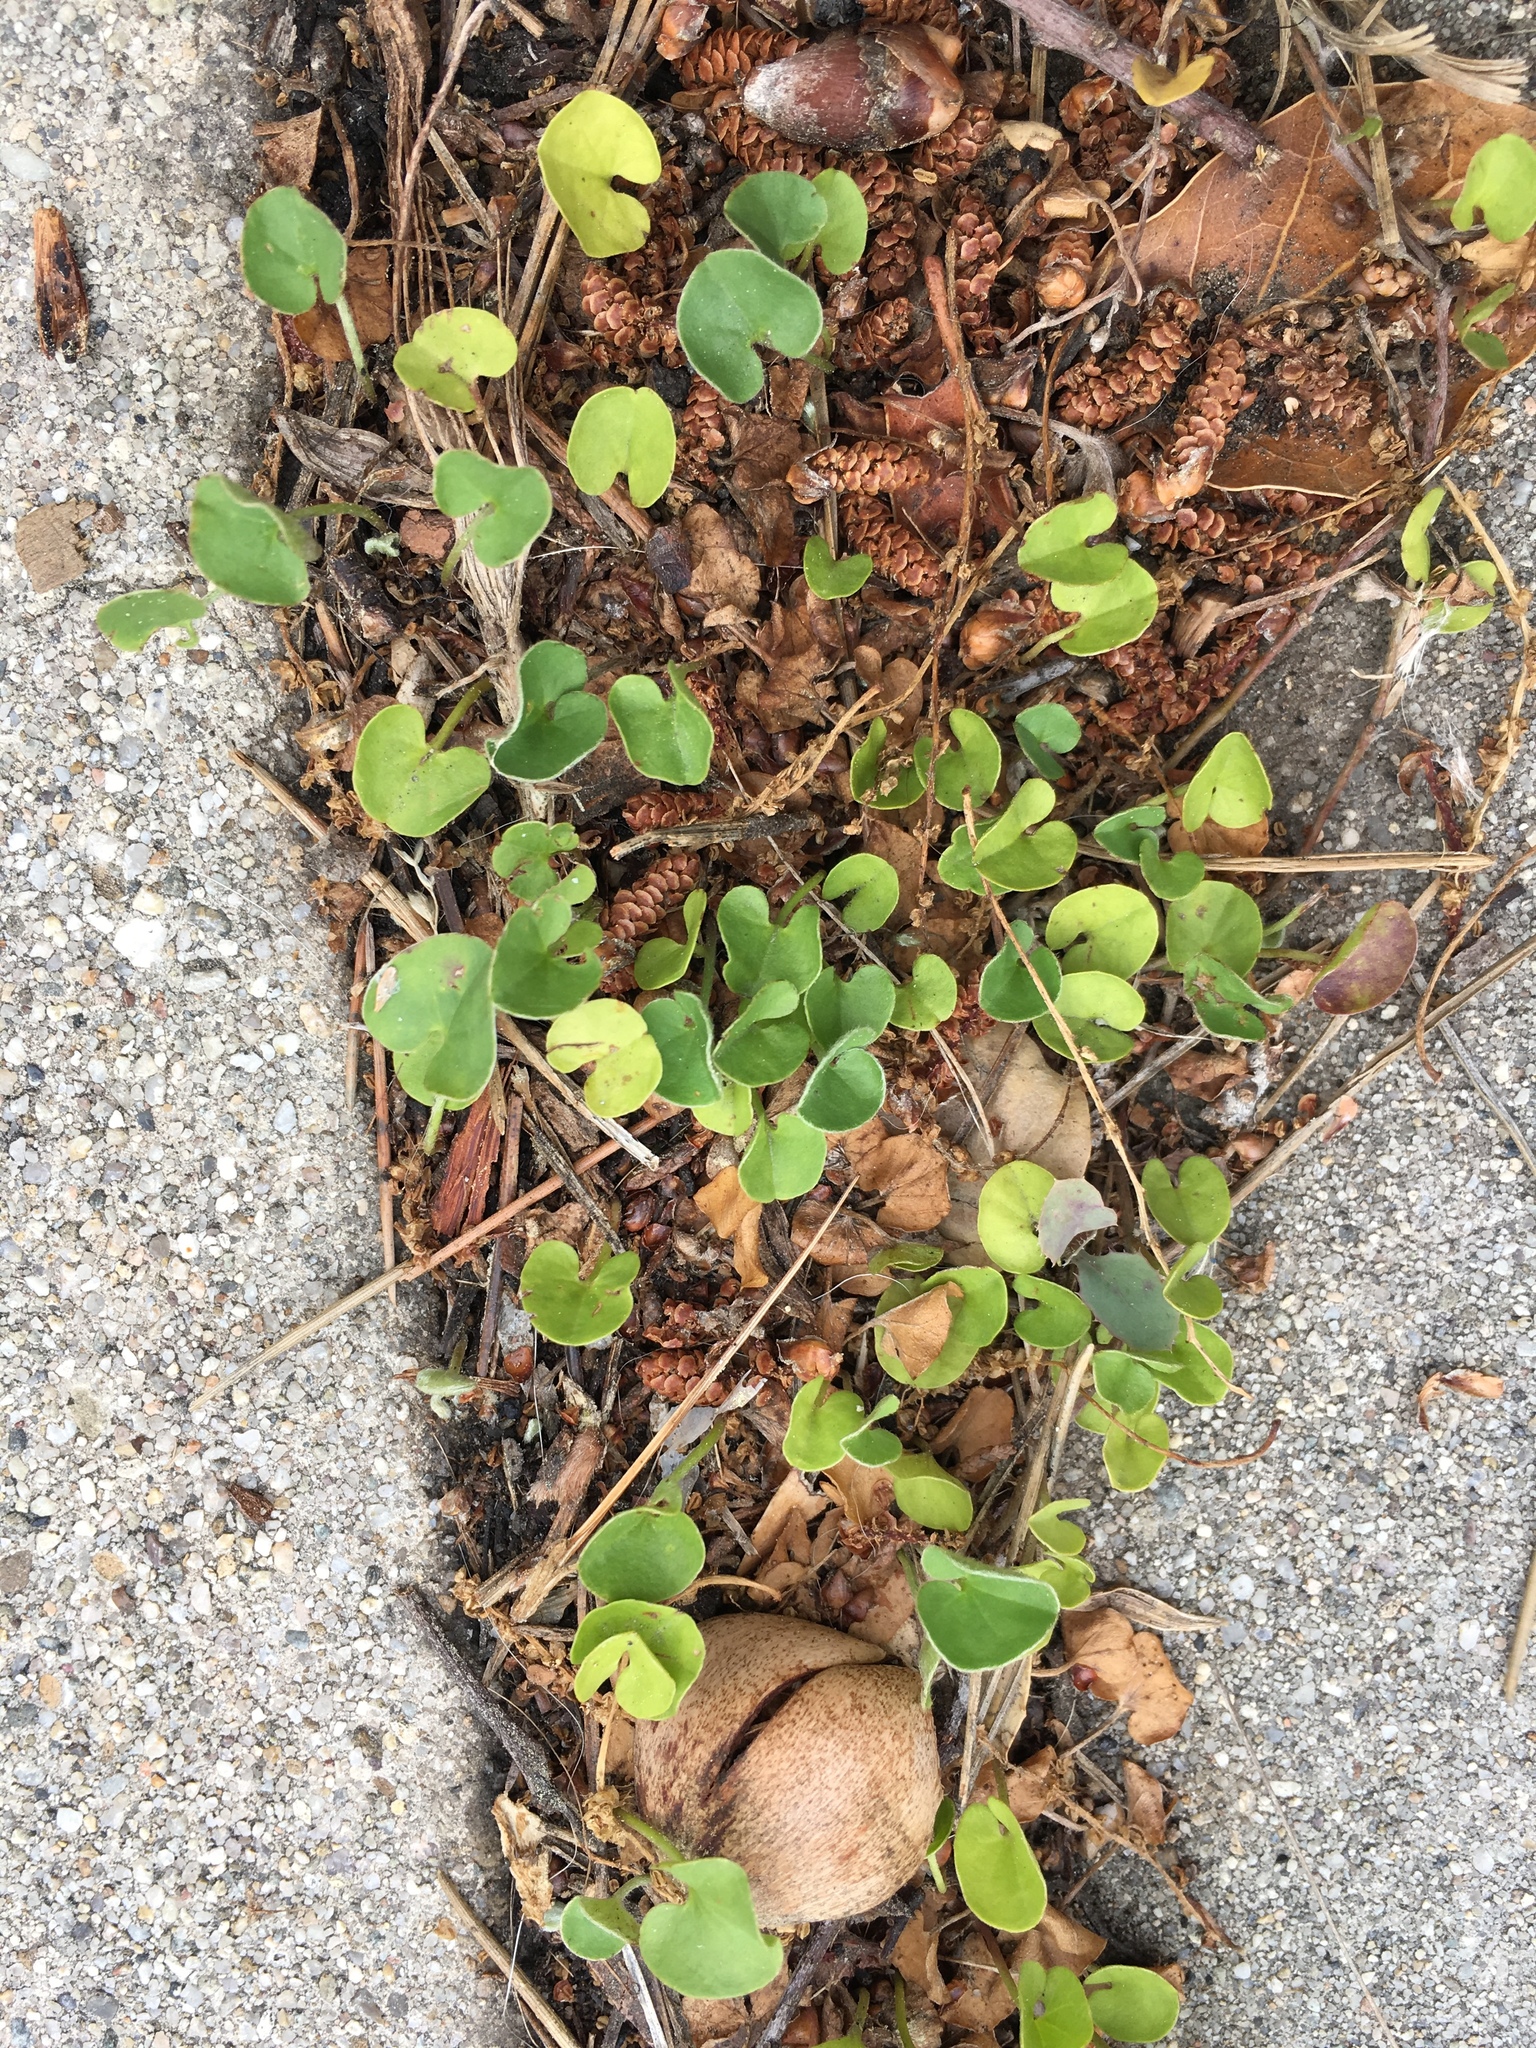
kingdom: Plantae
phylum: Tracheophyta
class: Magnoliopsida
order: Solanales
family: Convolvulaceae
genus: Dichondra
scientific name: Dichondra micrantha
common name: Kidneyweed
